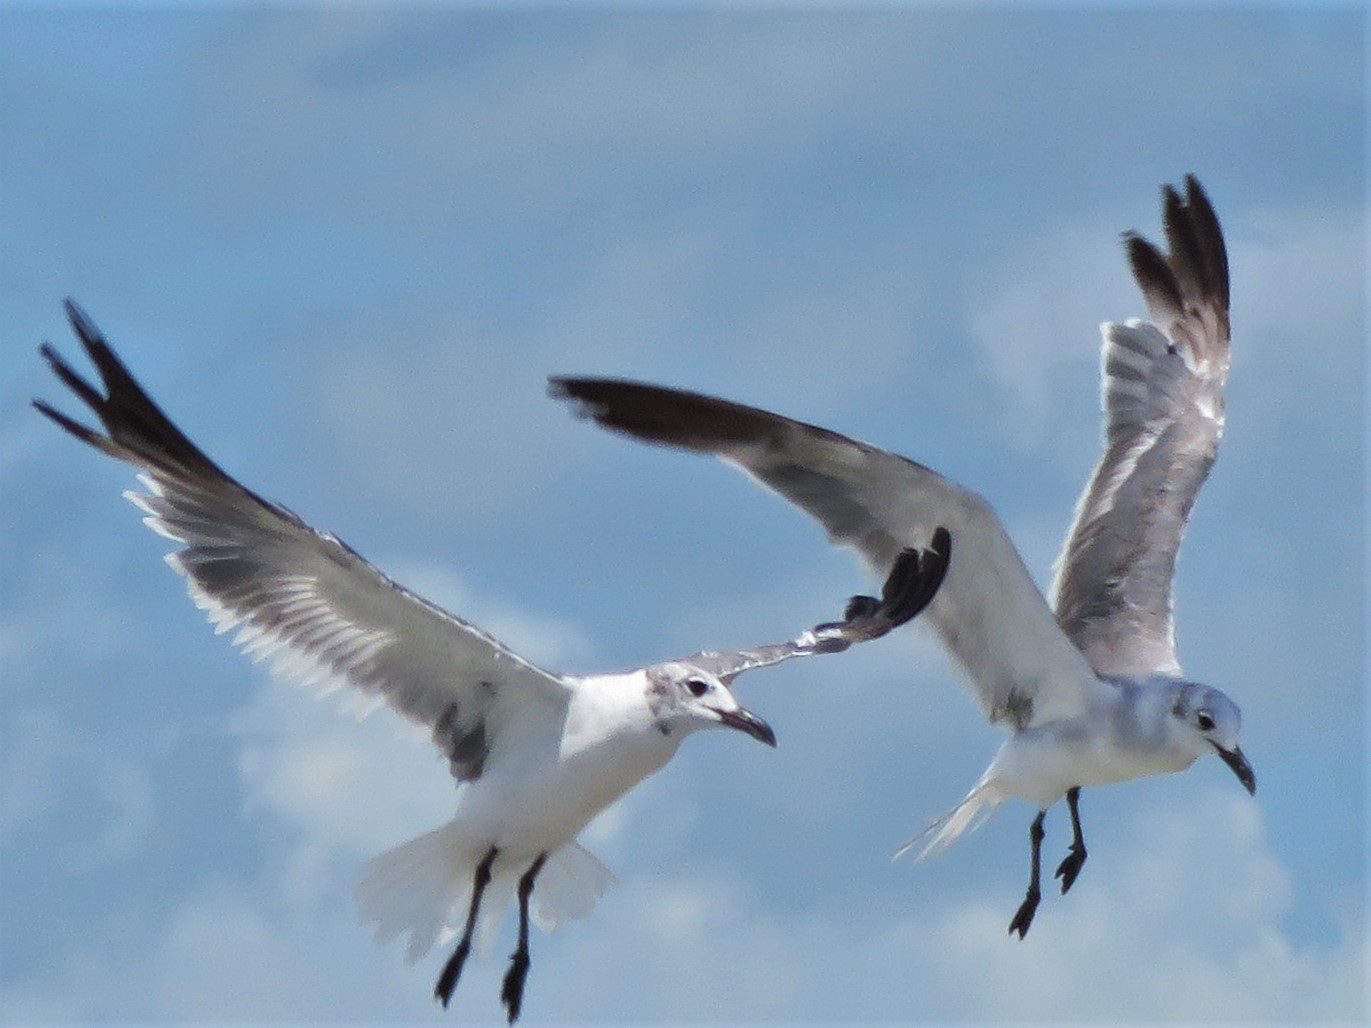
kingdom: Animalia
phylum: Chordata
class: Aves
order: Charadriiformes
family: Laridae
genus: Leucophaeus
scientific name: Leucophaeus atricilla
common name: Laughing gull
